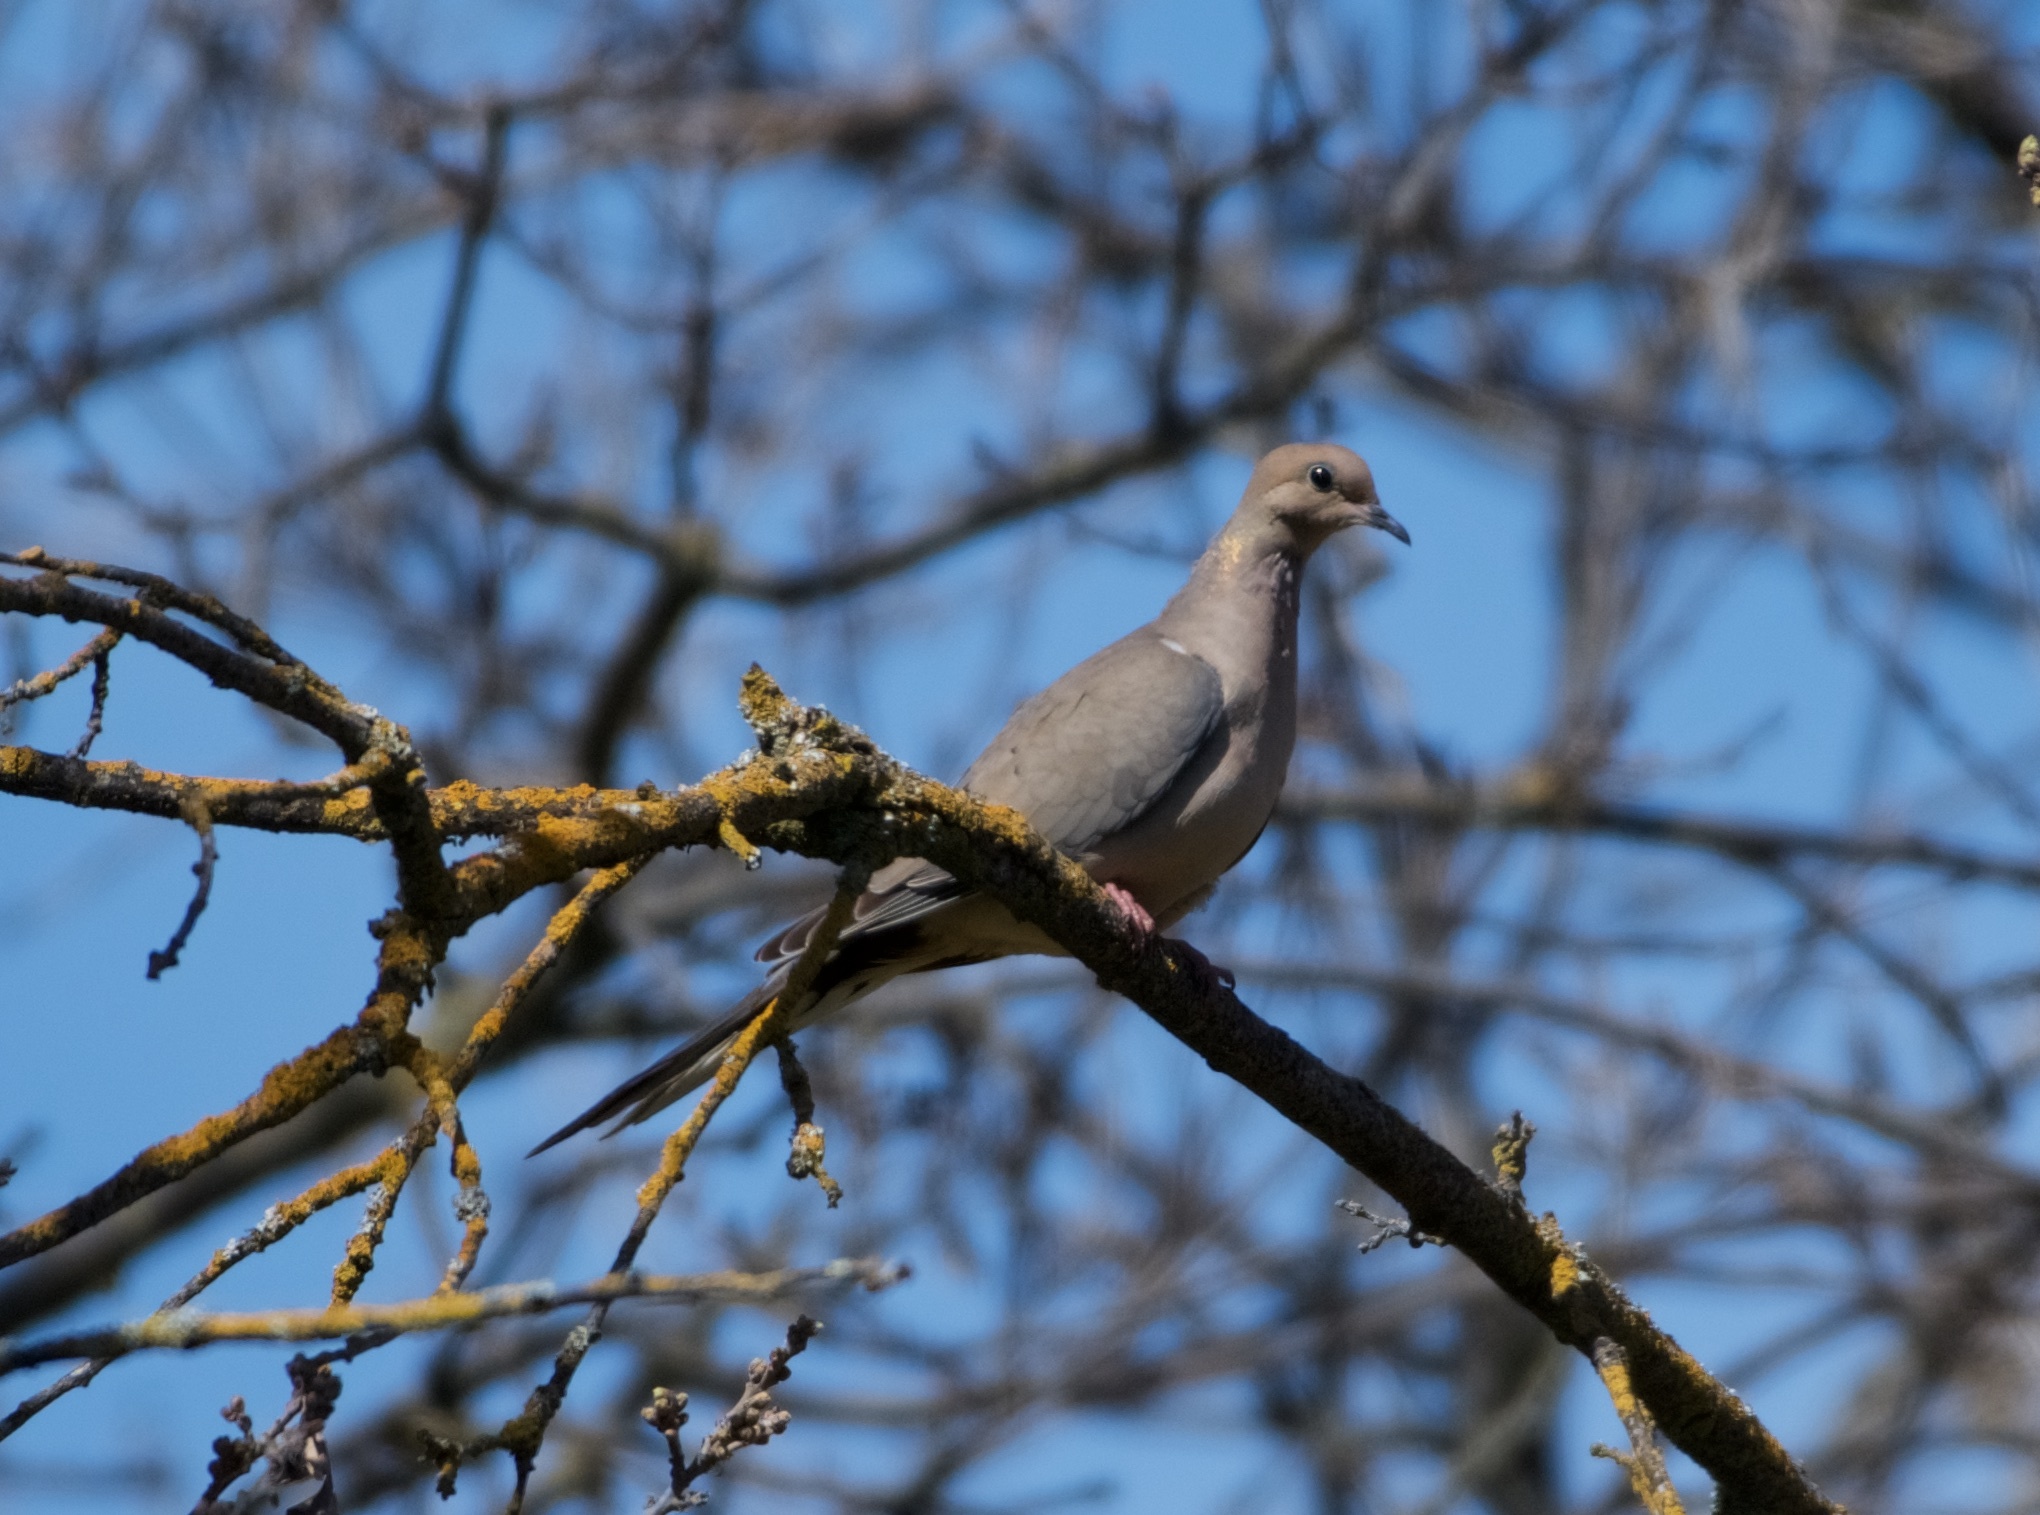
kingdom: Animalia
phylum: Chordata
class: Aves
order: Columbiformes
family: Columbidae
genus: Zenaida
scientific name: Zenaida macroura
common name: Mourning dove
